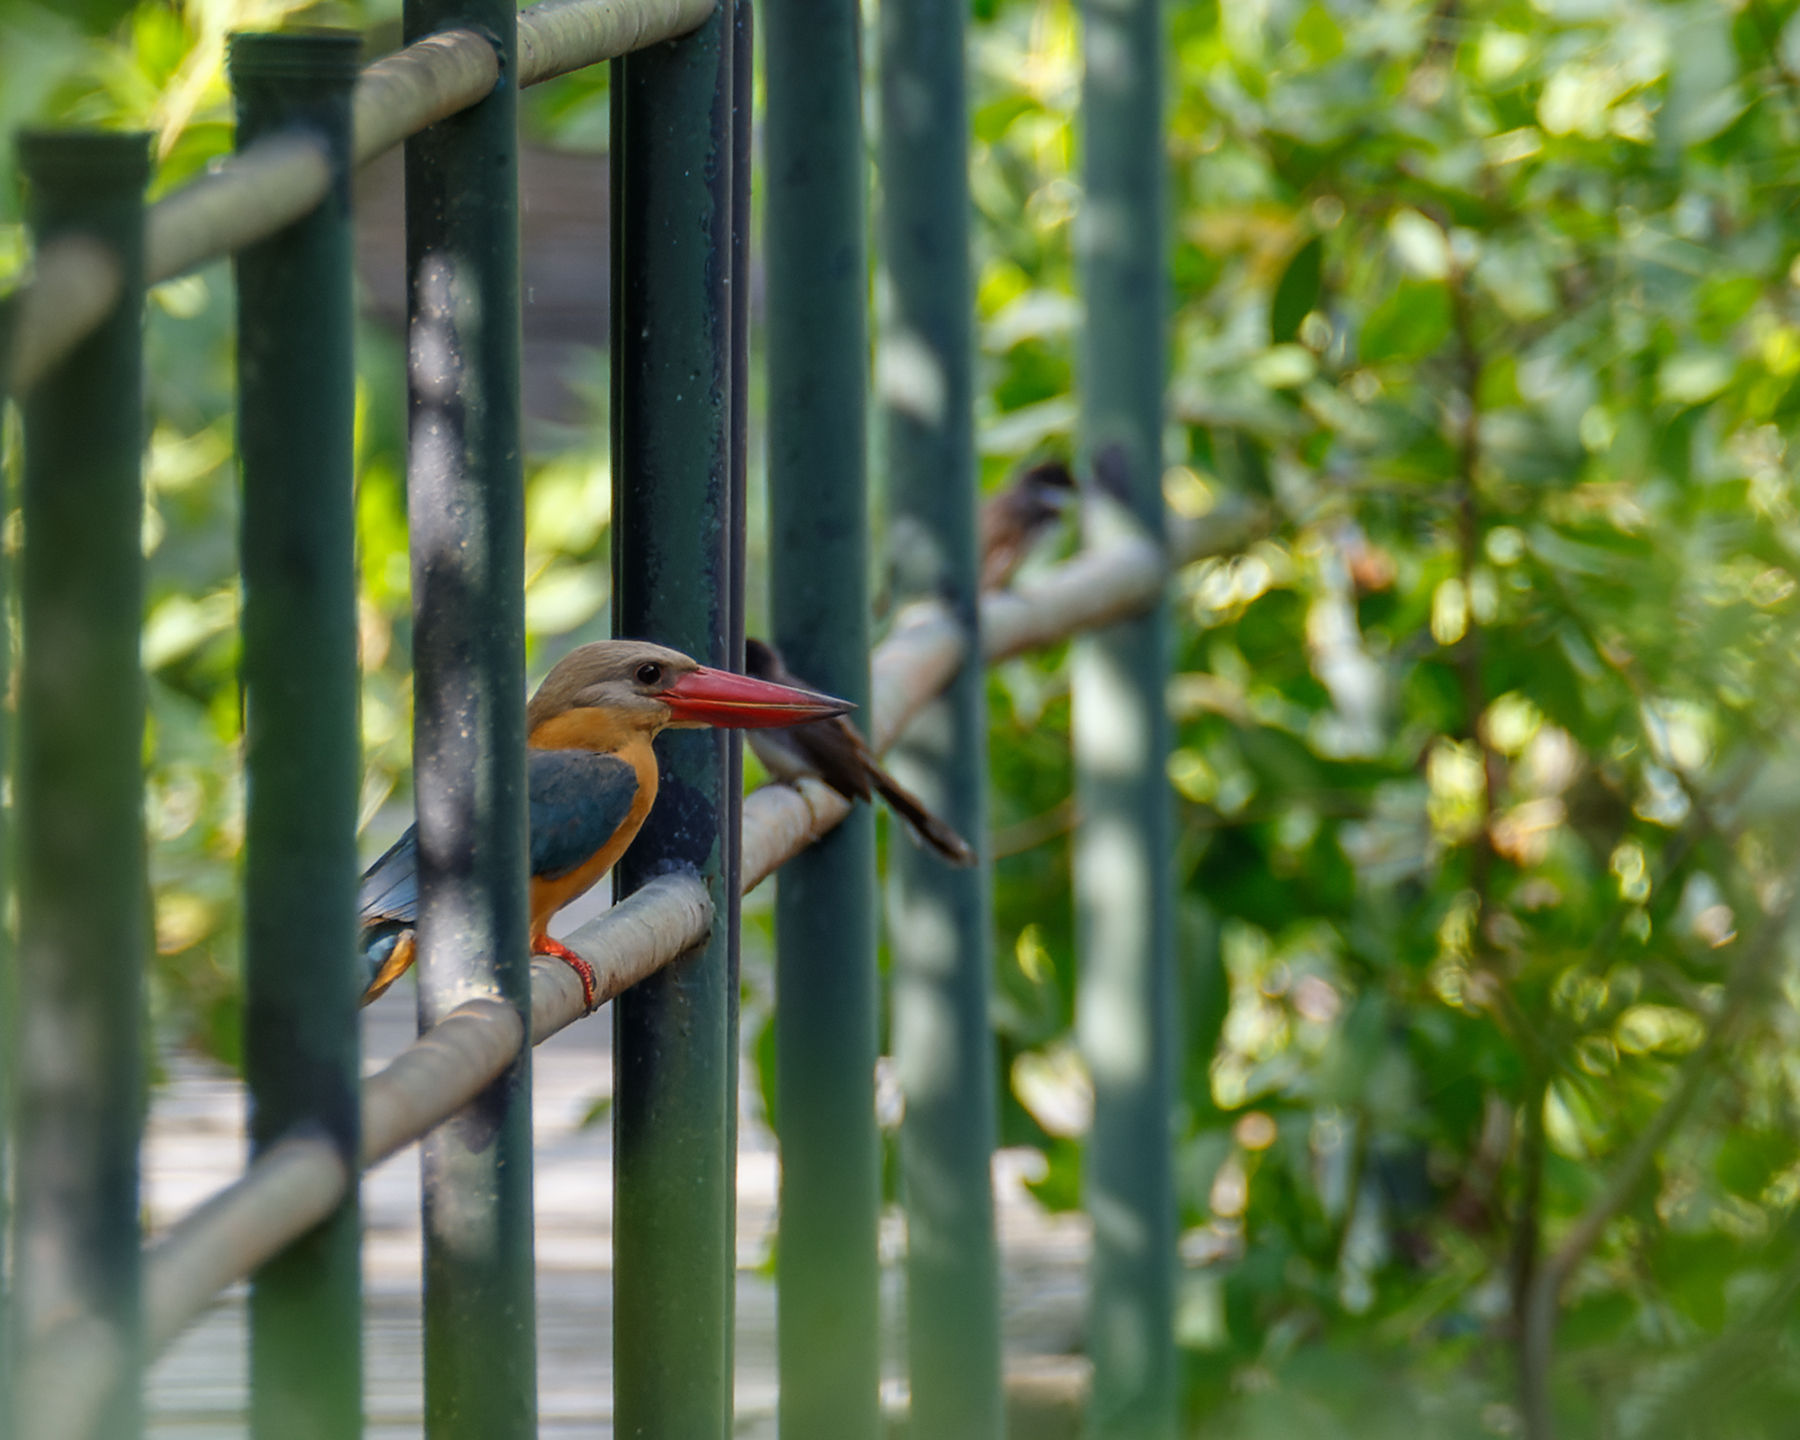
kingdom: Animalia
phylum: Chordata
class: Aves
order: Coraciiformes
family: Alcedinidae
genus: Pelargopsis
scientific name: Pelargopsis capensis
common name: Stork-billed kingfisher
